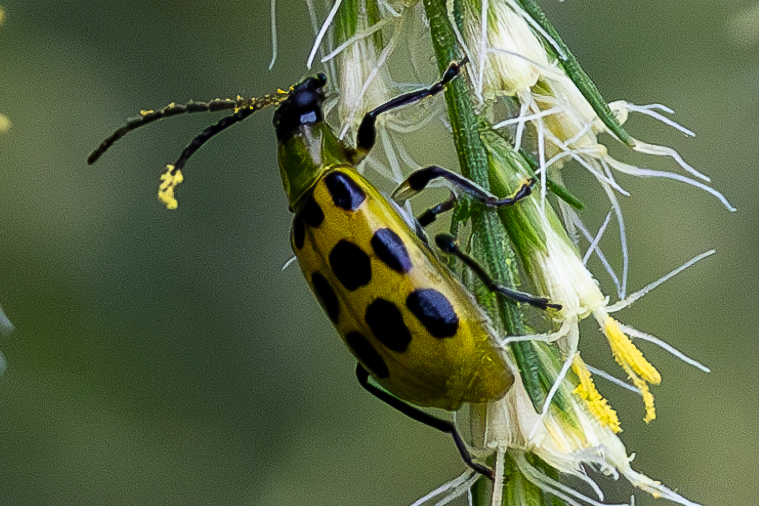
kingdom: Animalia
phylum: Arthropoda
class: Insecta
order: Coleoptera
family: Chrysomelidae
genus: Diabrotica
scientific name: Diabrotica undecimpunctata
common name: Spotted cucumber beetle
